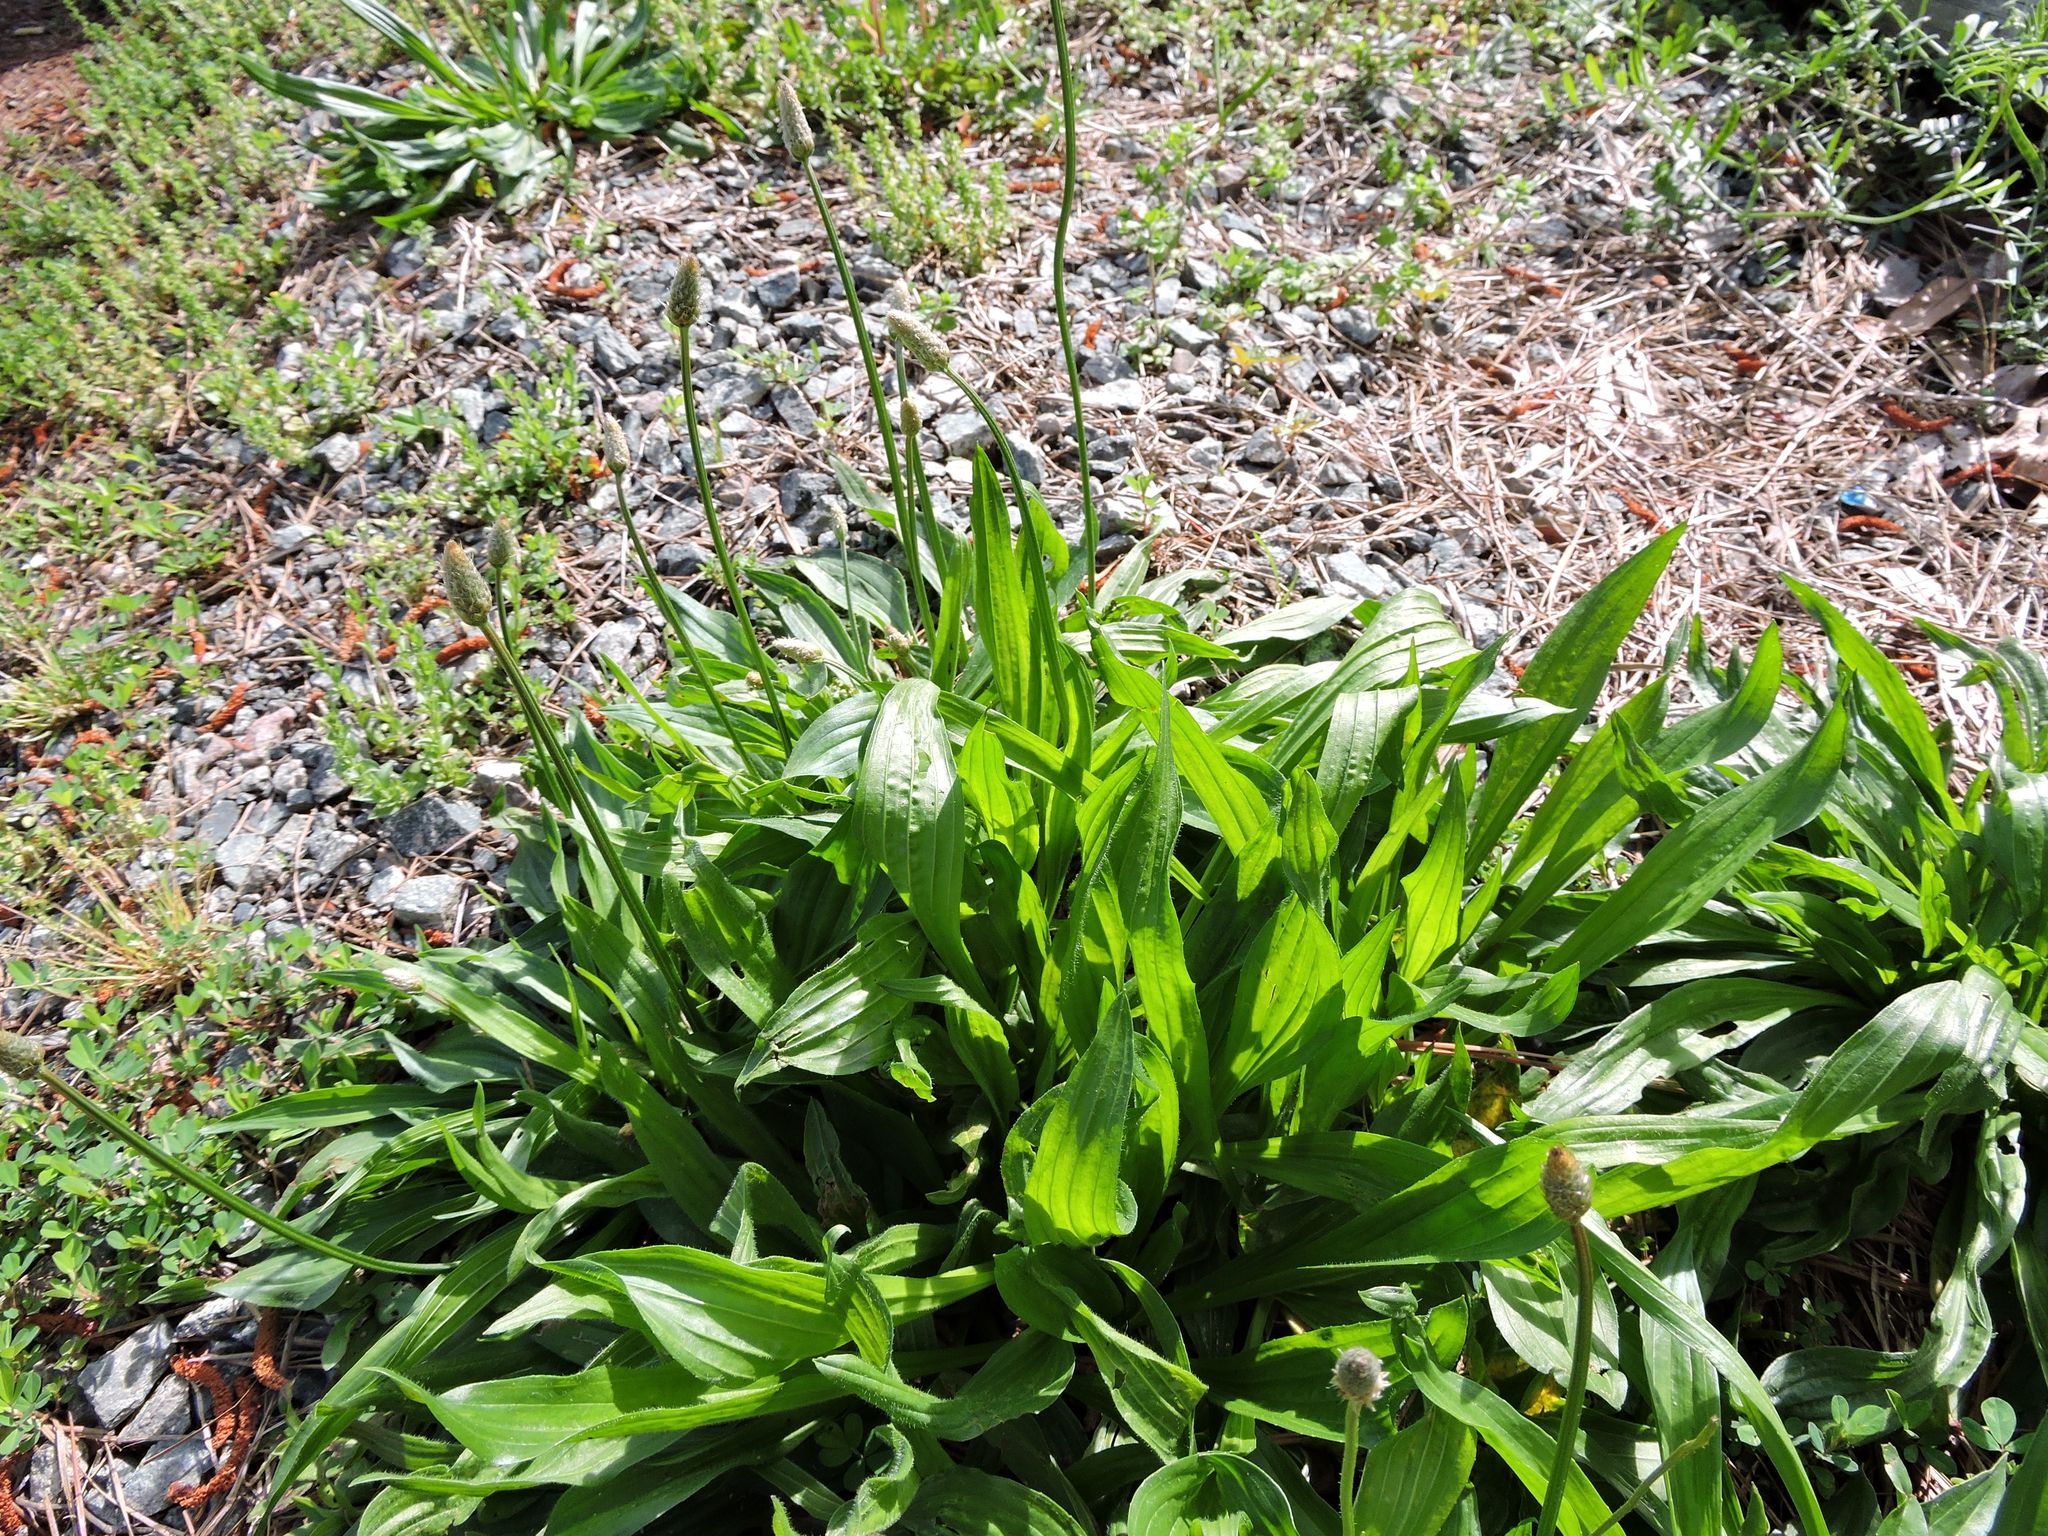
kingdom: Plantae
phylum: Tracheophyta
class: Magnoliopsida
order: Lamiales
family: Plantaginaceae
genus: Plantago
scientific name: Plantago lanceolata
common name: Ribwort plantain
